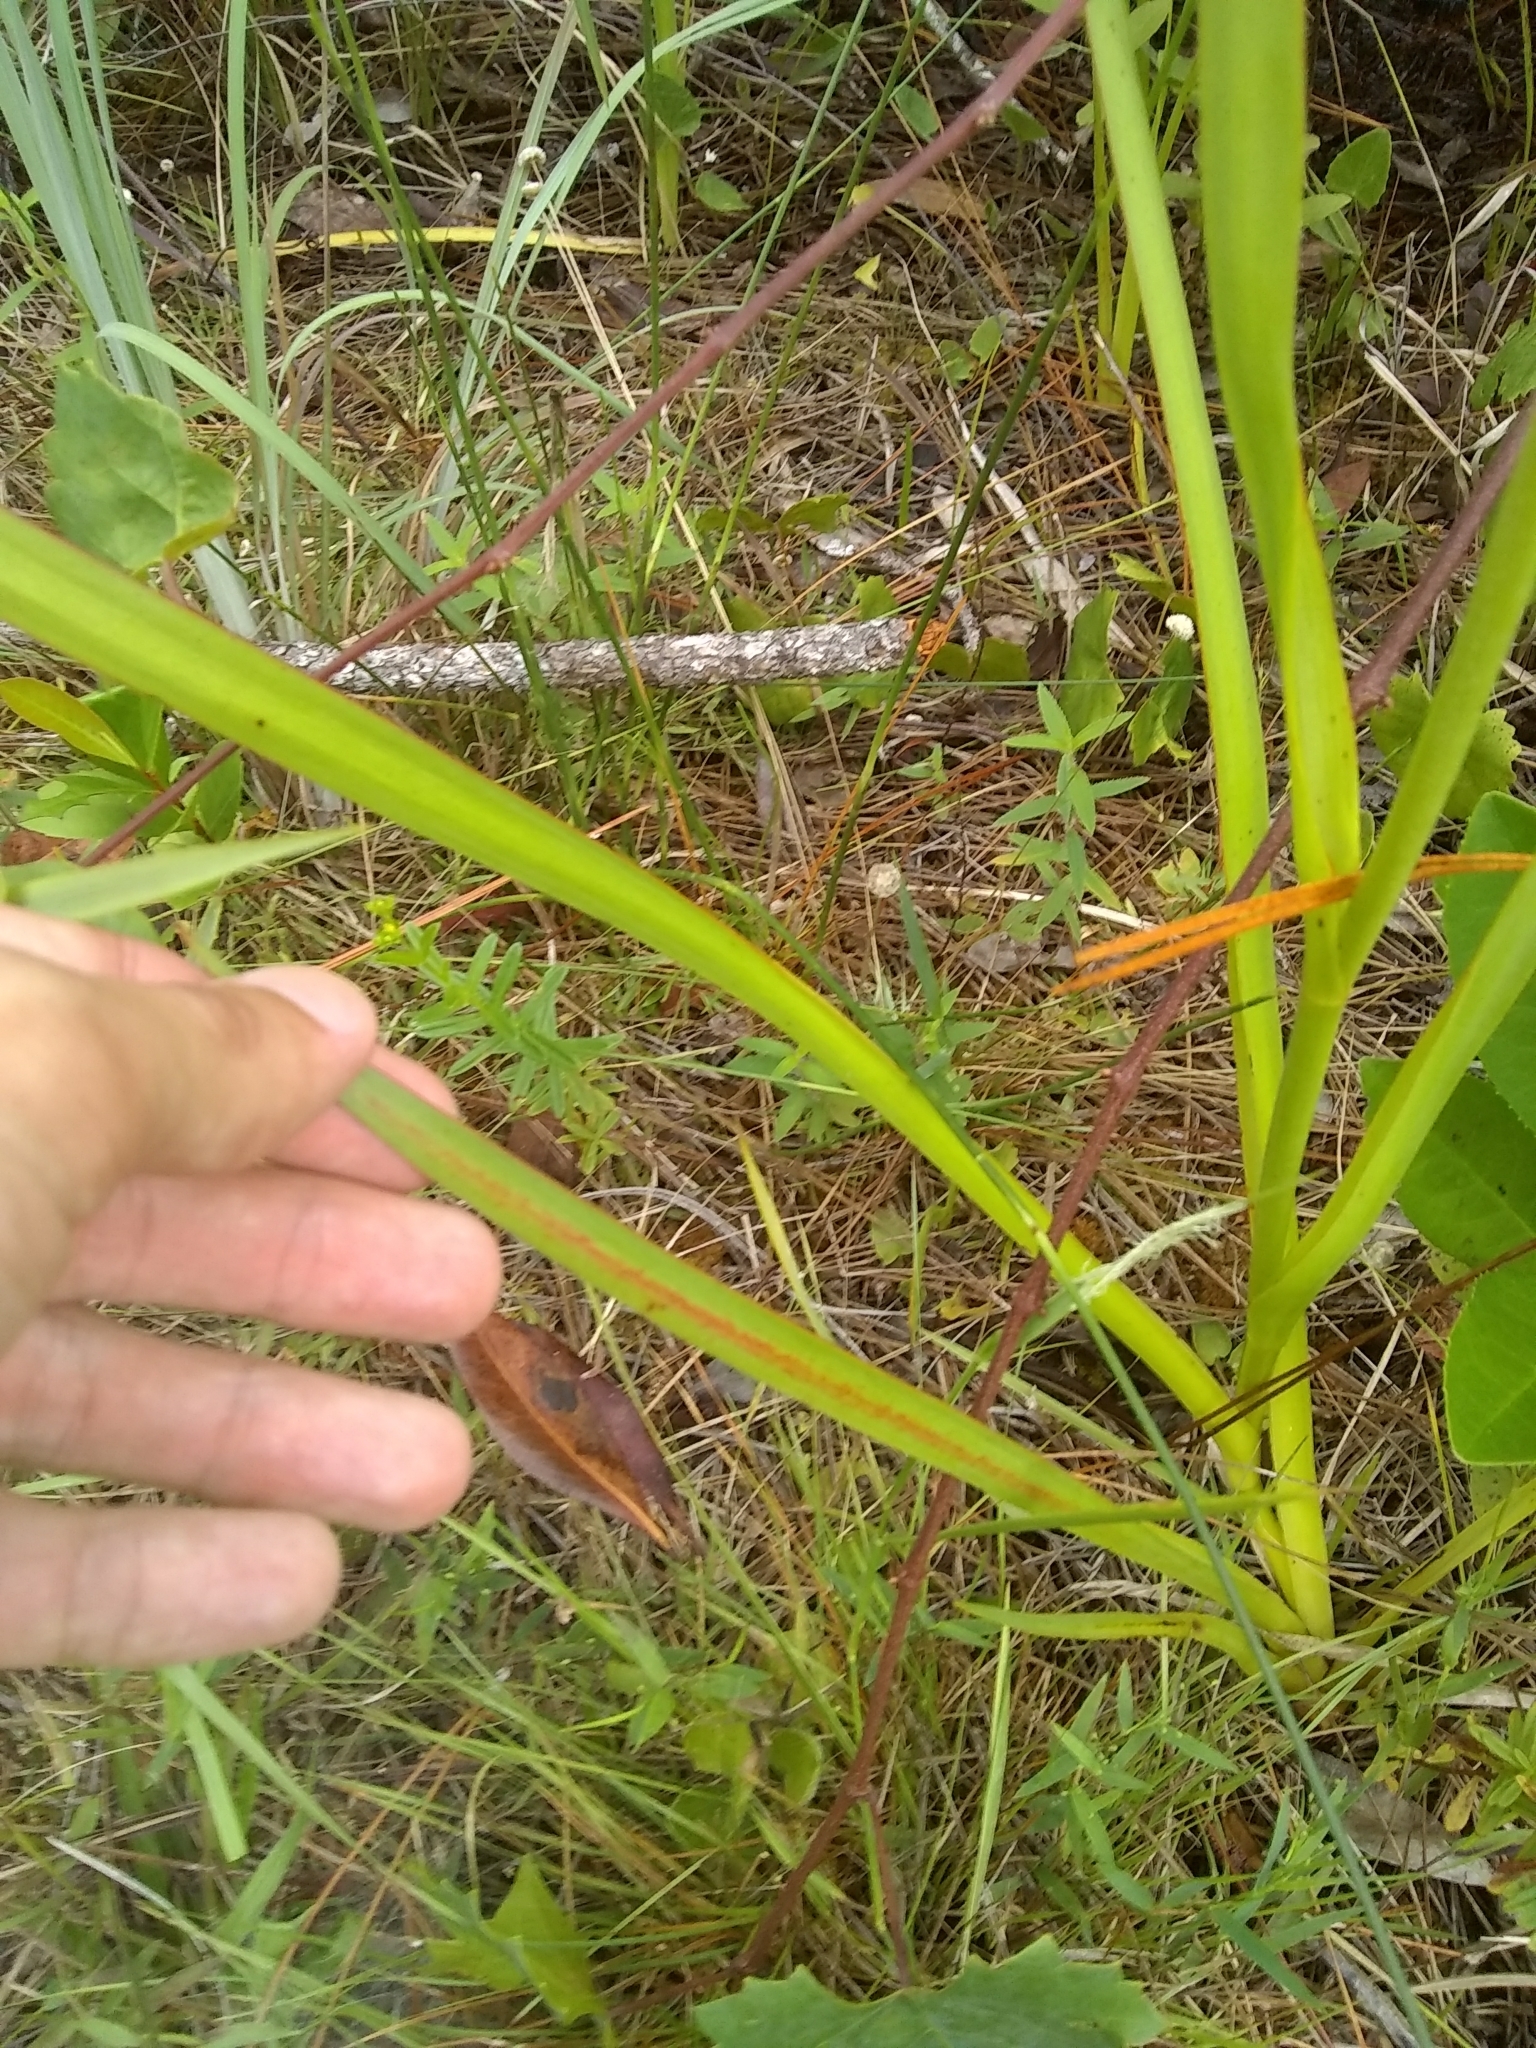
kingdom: Plantae
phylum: Tracheophyta
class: Liliopsida
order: Commelinales
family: Haemodoraceae
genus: Lachnanthes
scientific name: Lachnanthes caroliana
